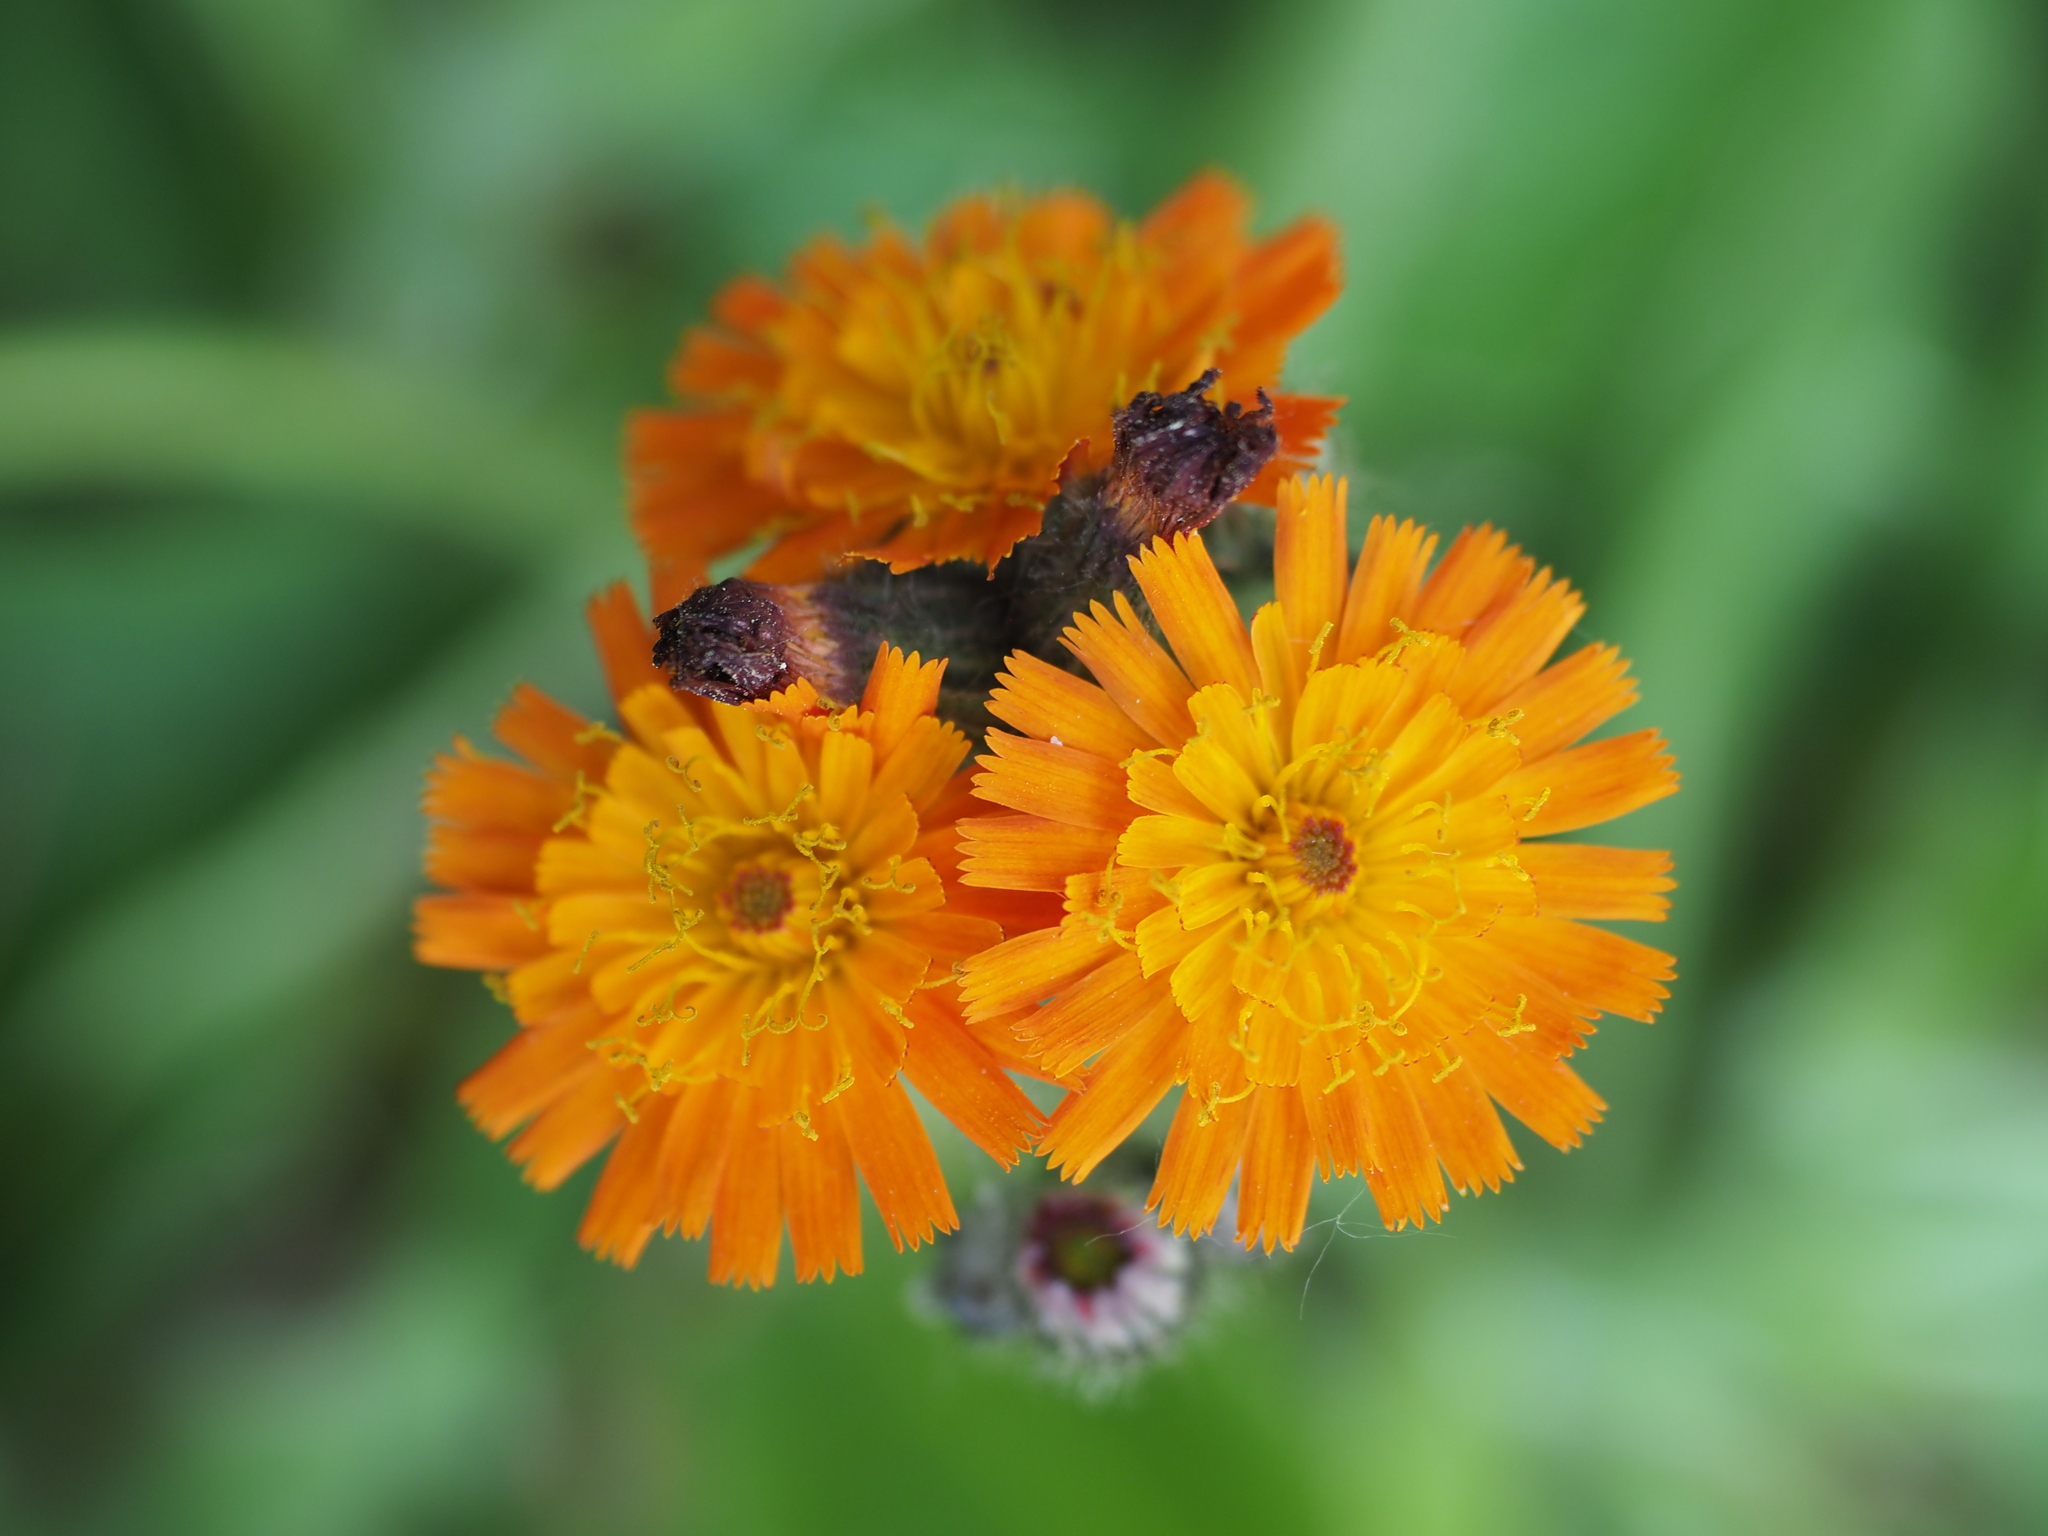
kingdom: Plantae
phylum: Tracheophyta
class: Magnoliopsida
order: Asterales
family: Asteraceae
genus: Pilosella
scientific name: Pilosella aurantiaca
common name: Fox-and-cubs
